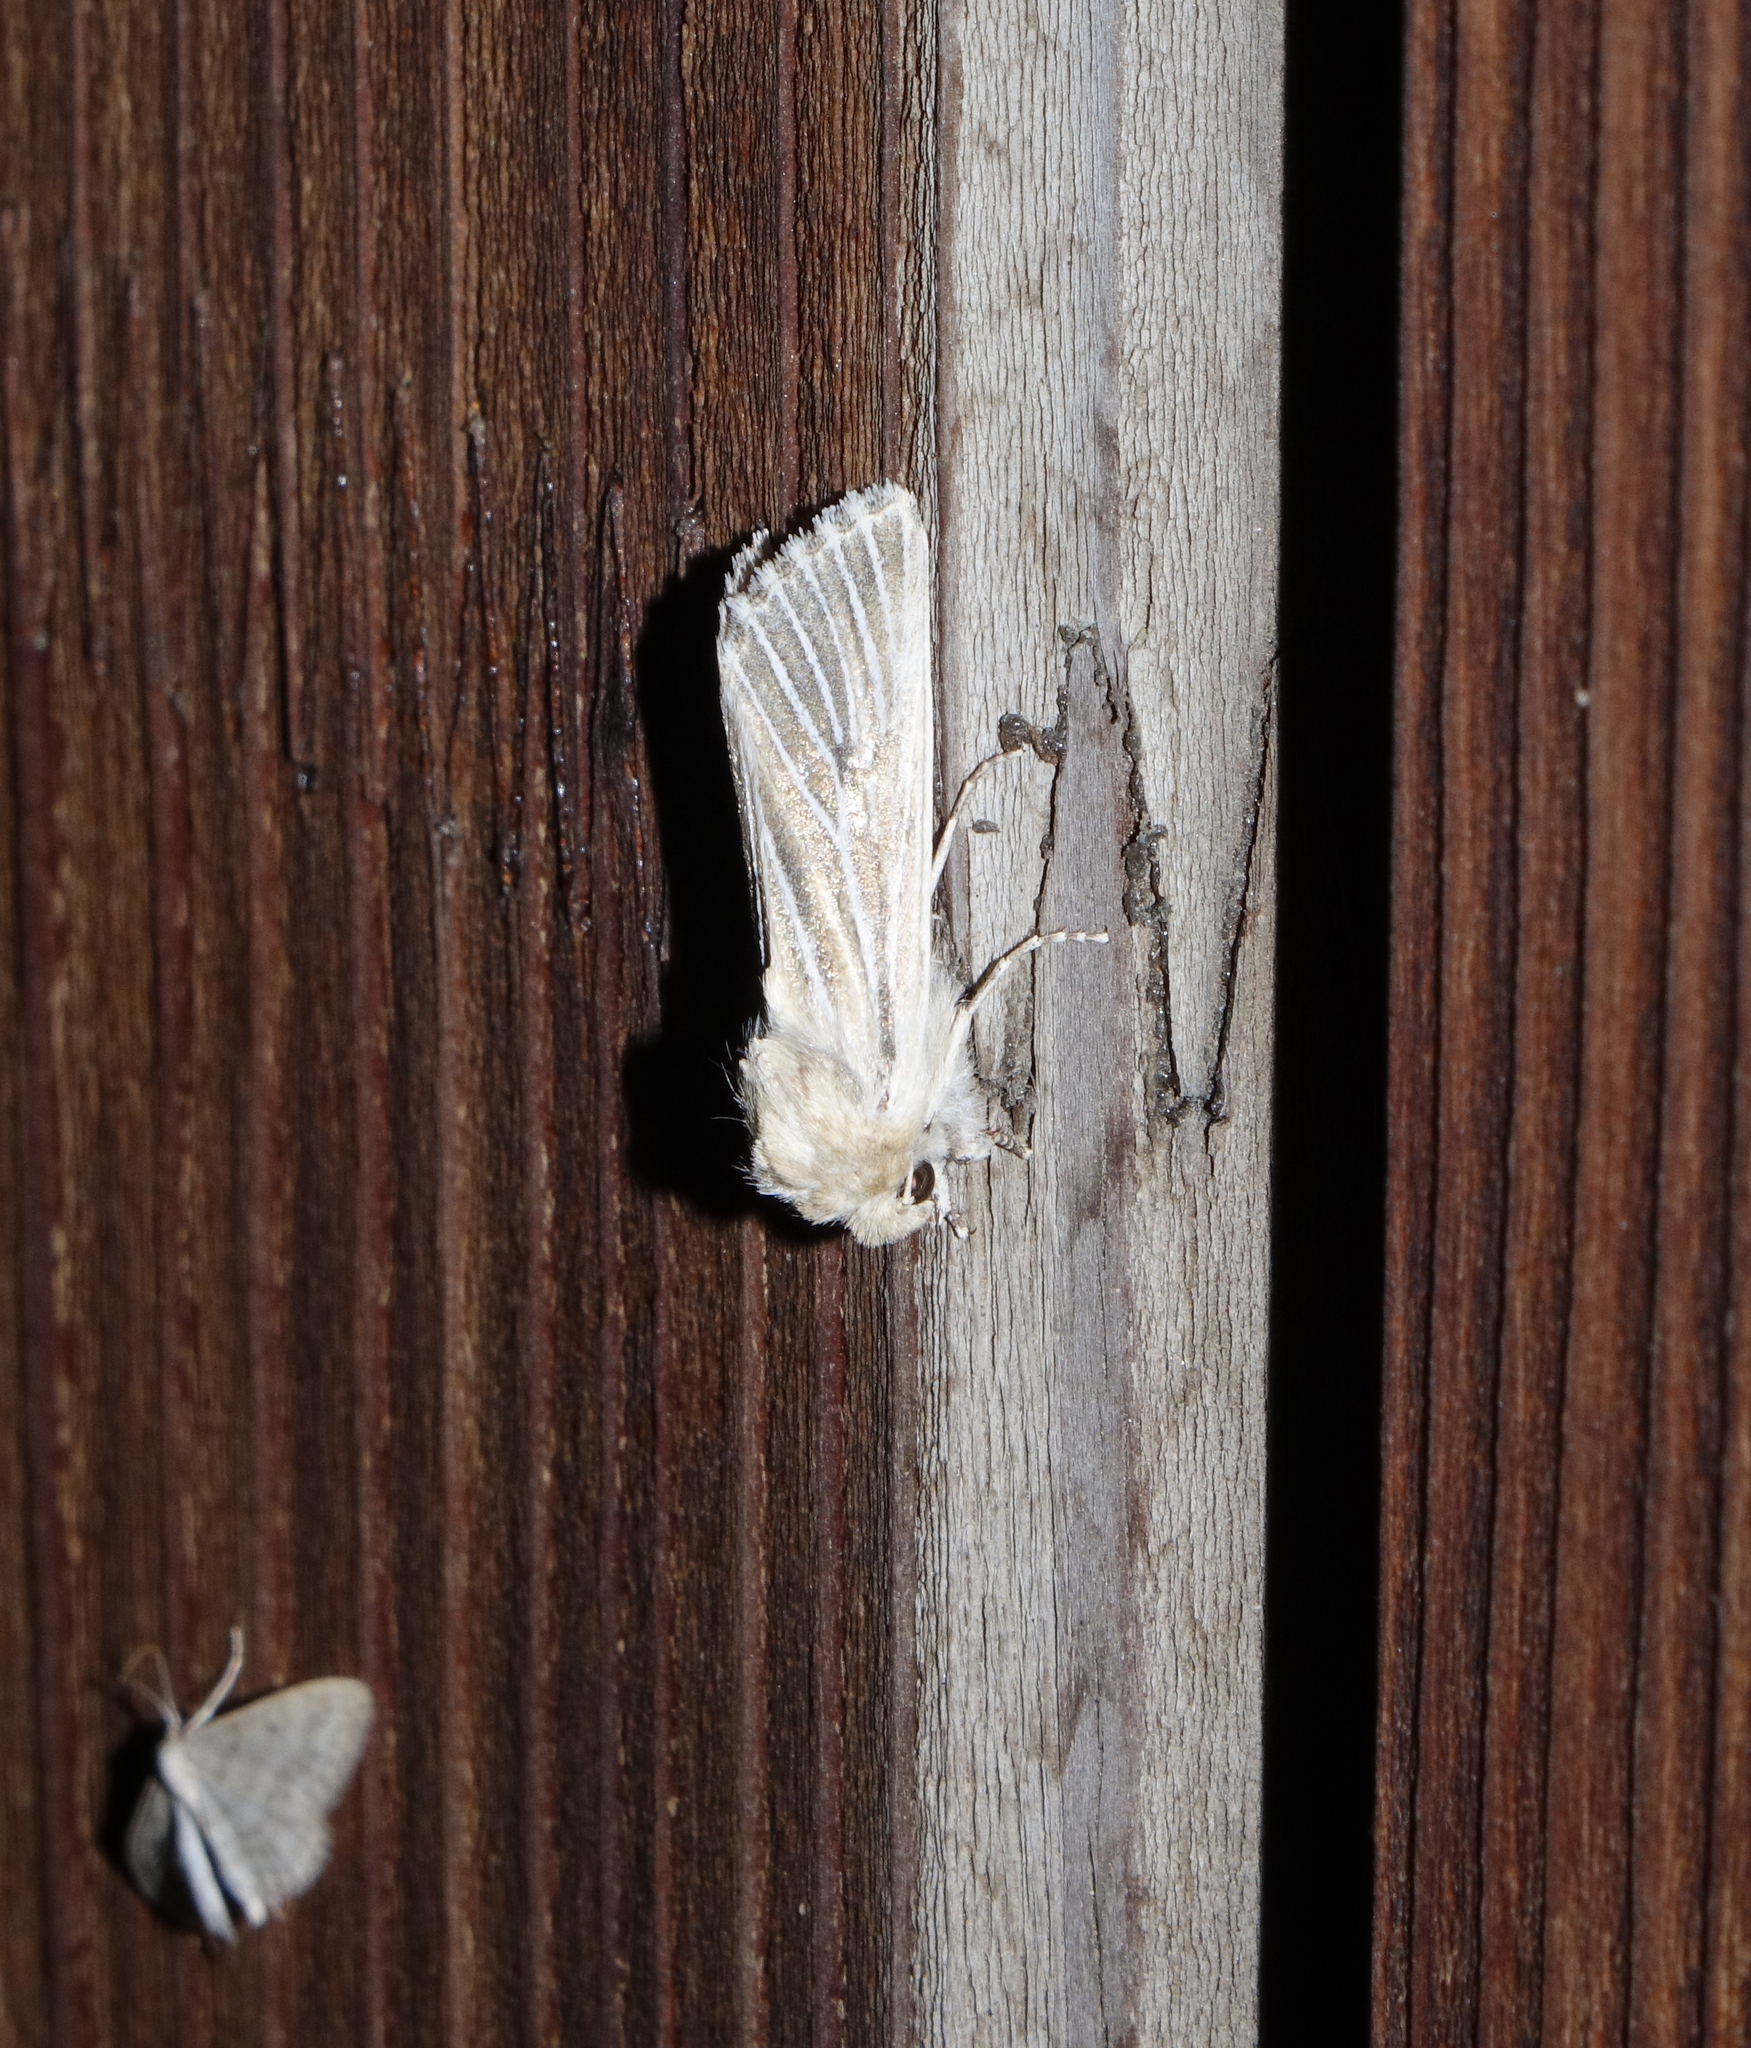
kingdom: Animalia
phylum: Arthropoda
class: Insecta
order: Lepidoptera
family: Noctuidae
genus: Oria
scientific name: Oria musculosa
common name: Brighton wainscot
